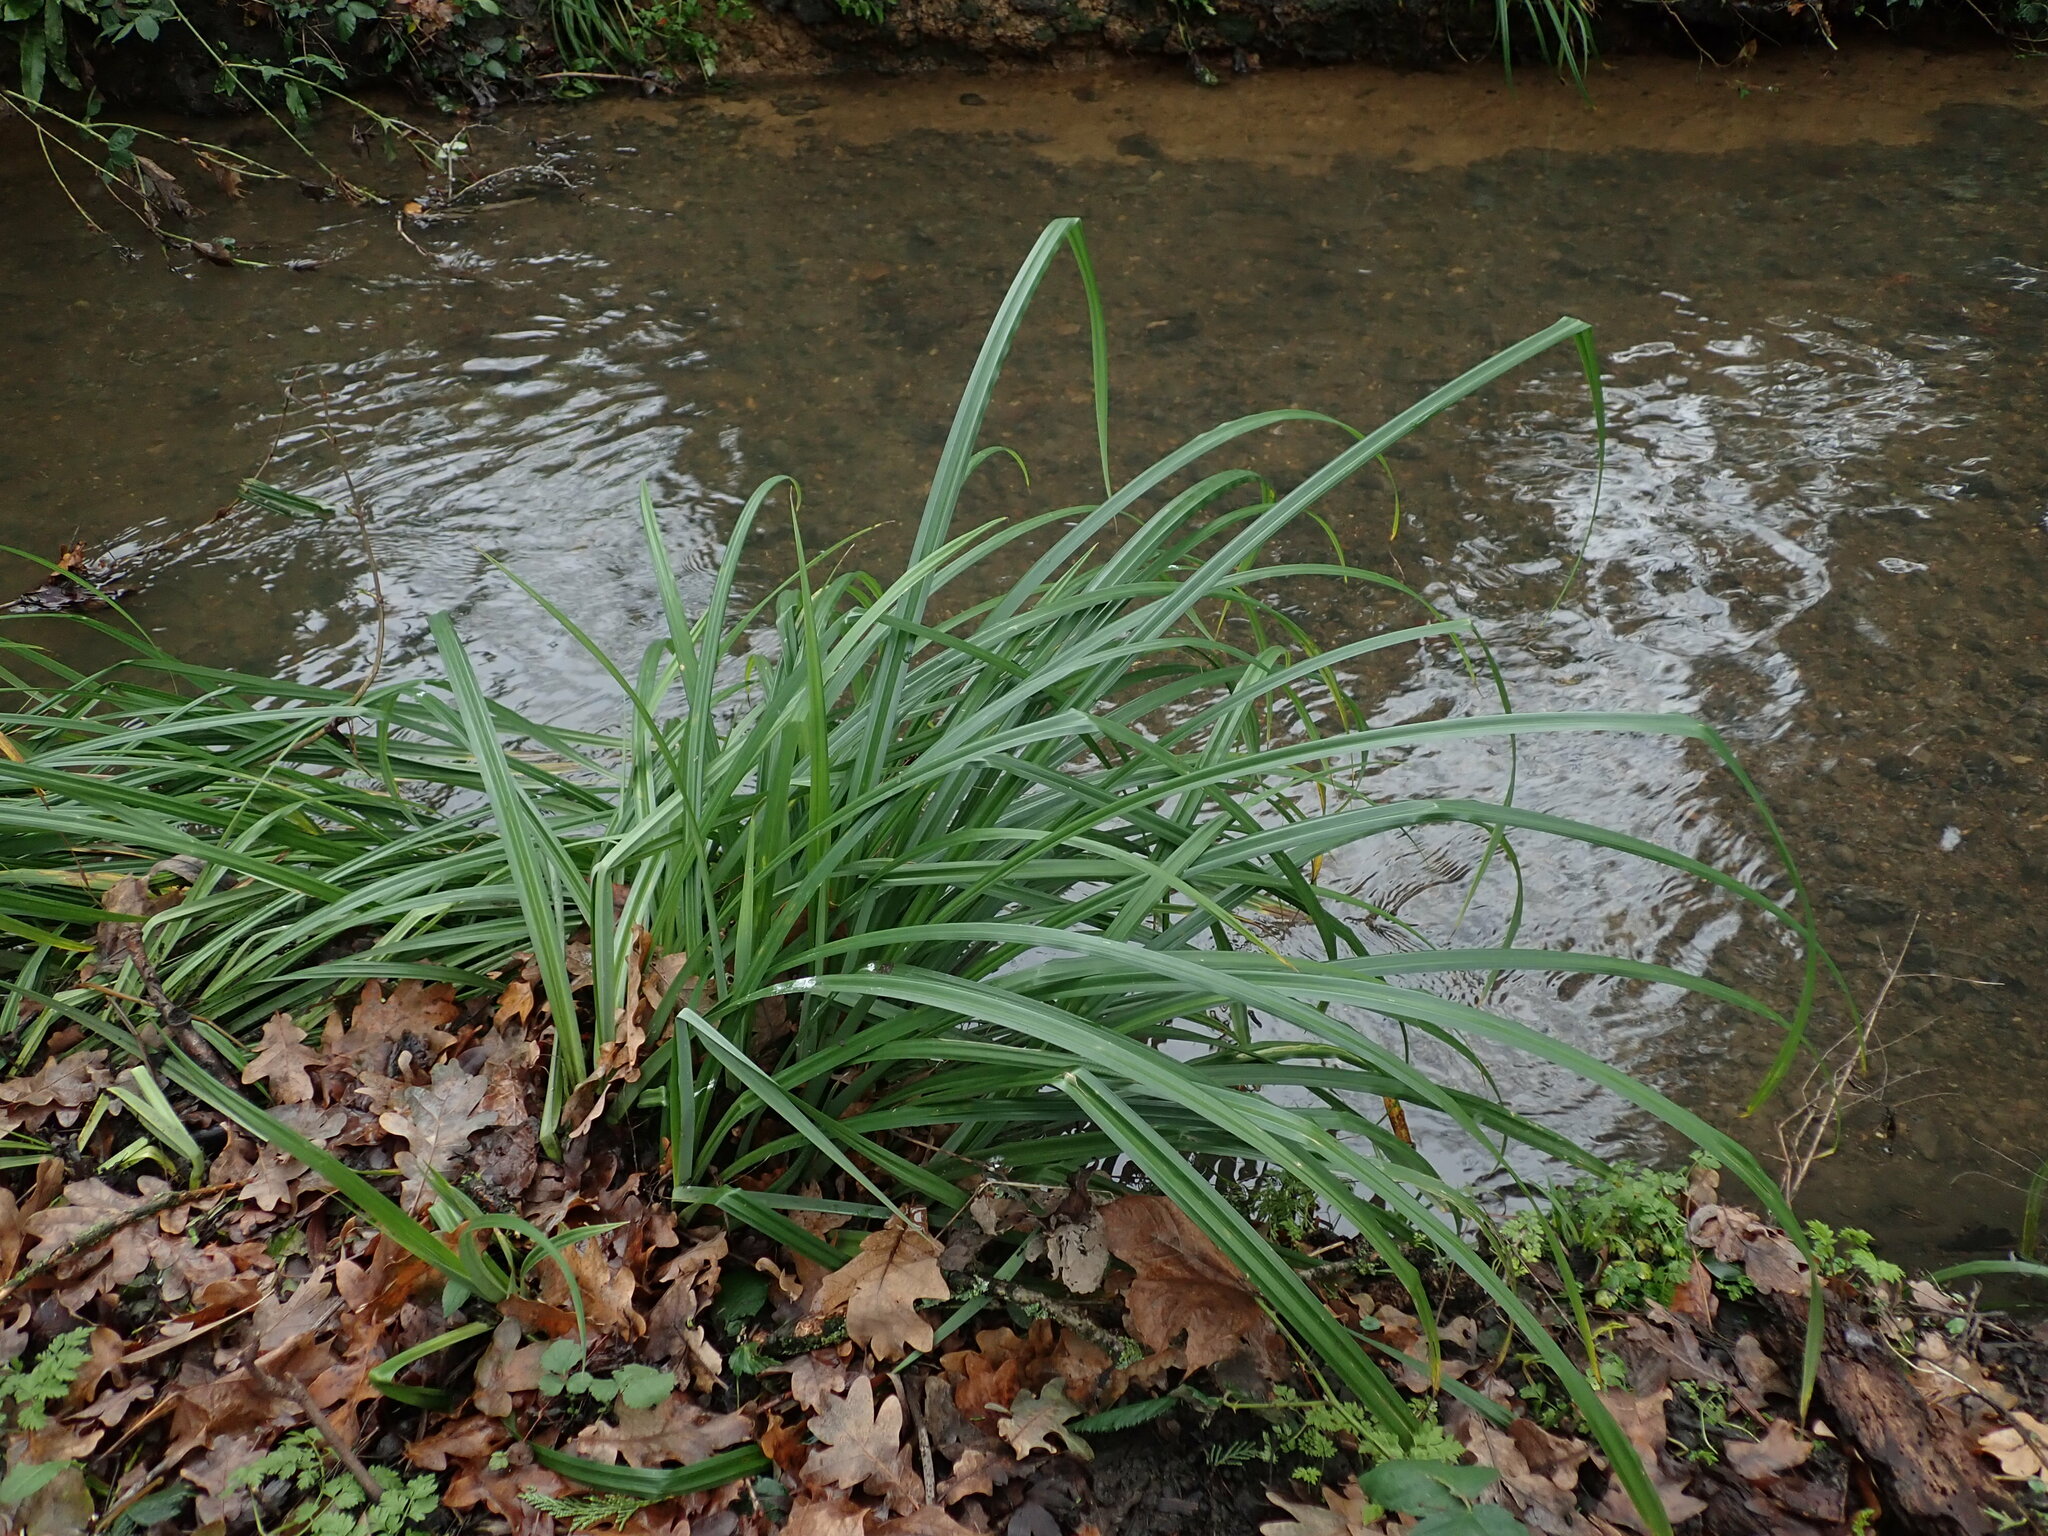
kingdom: Plantae
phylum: Tracheophyta
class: Liliopsida
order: Poales
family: Cyperaceae
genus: Carex
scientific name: Carex pendula
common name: Pendulous sedge
